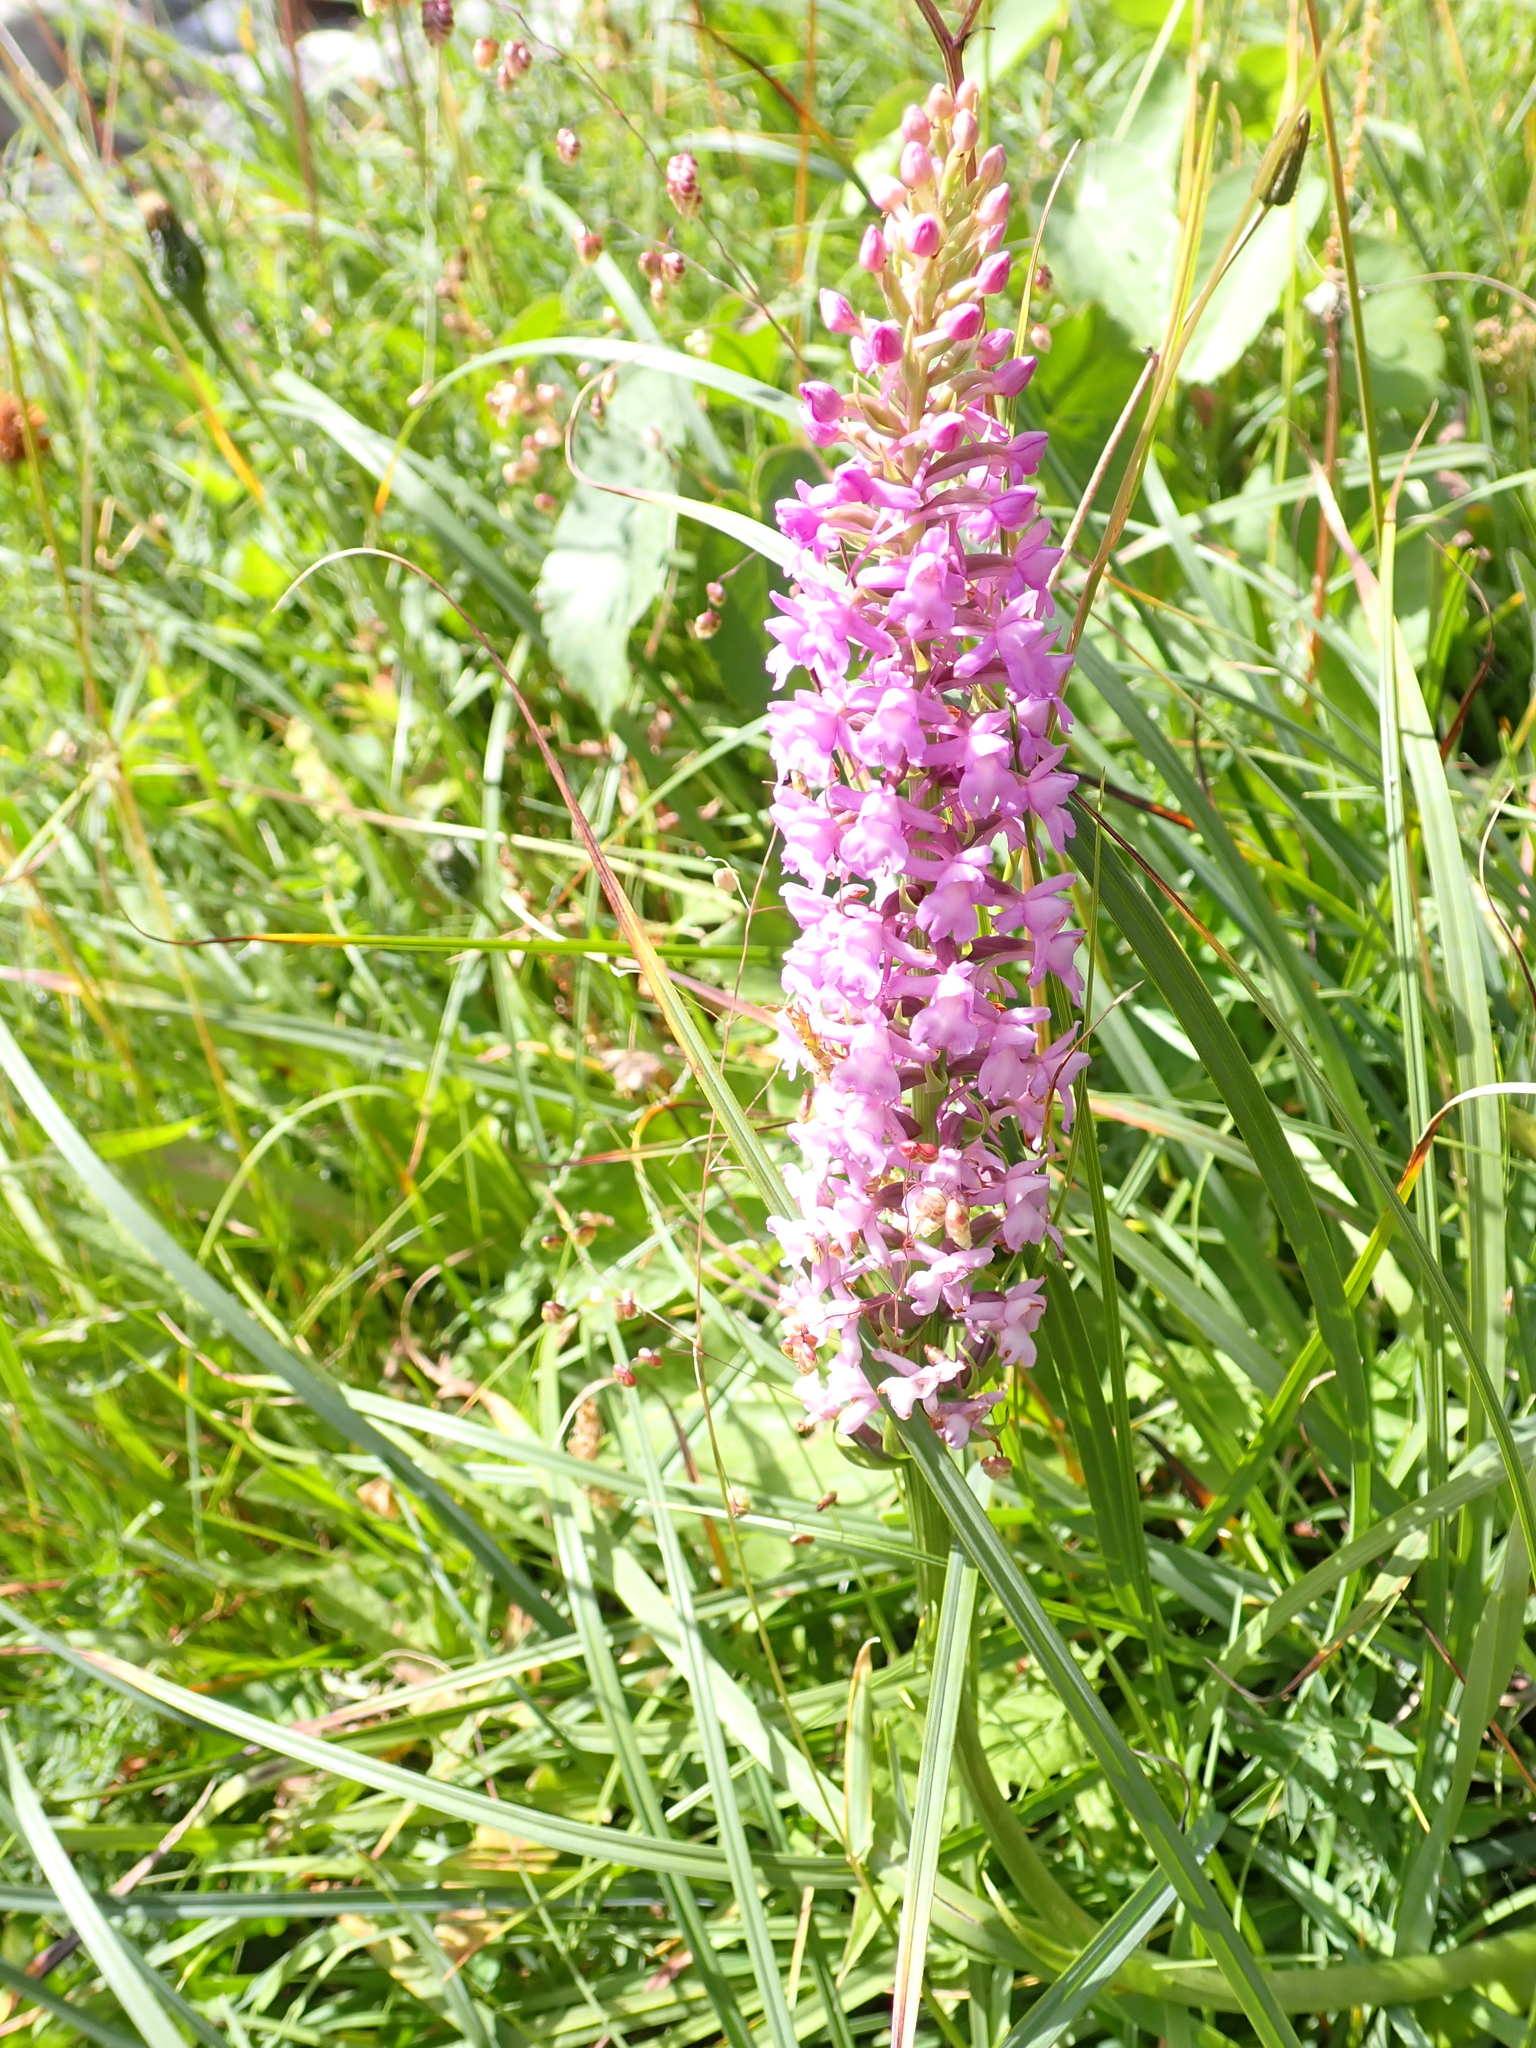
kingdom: Plantae
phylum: Tracheophyta
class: Liliopsida
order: Asparagales
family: Orchidaceae
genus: Gymnadenia
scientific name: Gymnadenia conopsea
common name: Fragrant orchid
